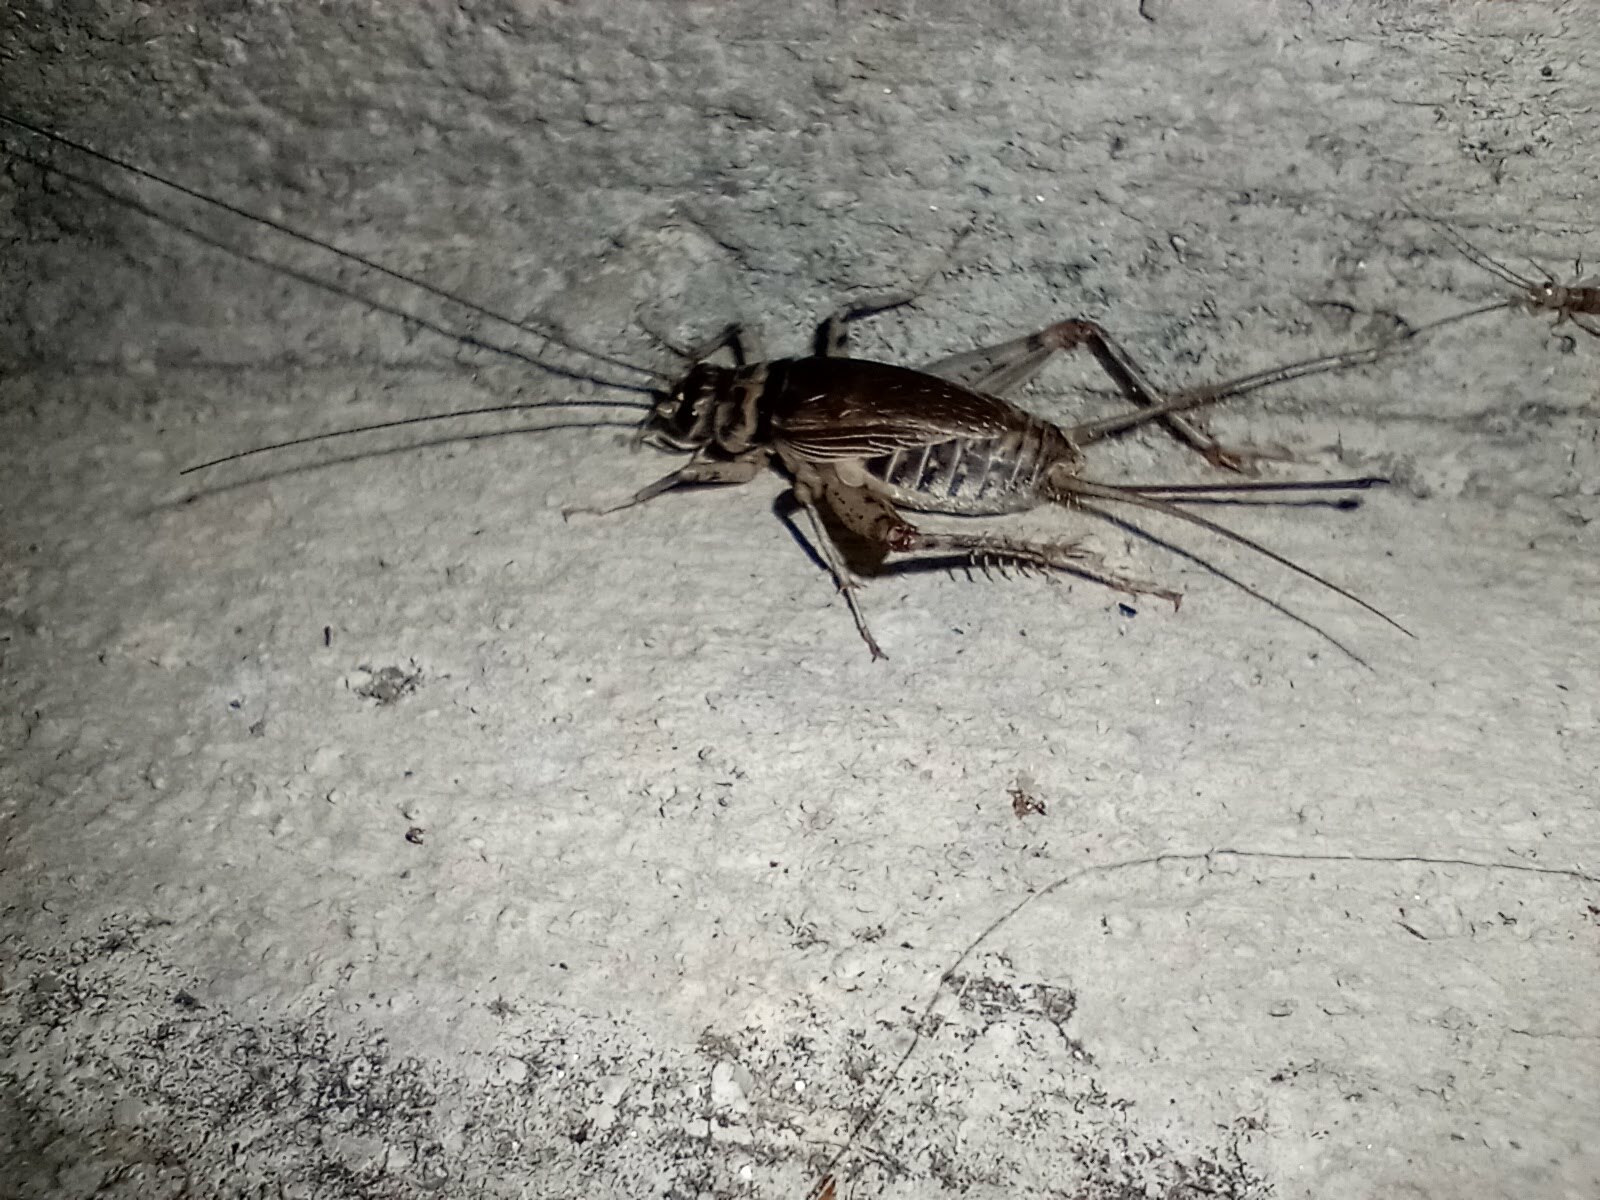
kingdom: Animalia
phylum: Arthropoda
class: Insecta
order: Orthoptera
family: Gryllidae
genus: Gryllodes
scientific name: Gryllodes sigillatus
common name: Tropical house cricket
